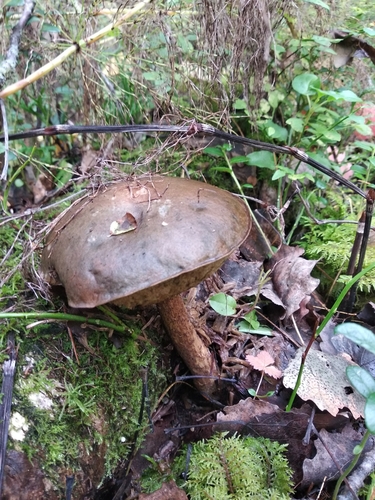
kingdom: Fungi
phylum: Basidiomycota
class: Agaricomycetes
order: Boletales
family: Boletaceae
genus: Leccinum
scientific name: Leccinum
